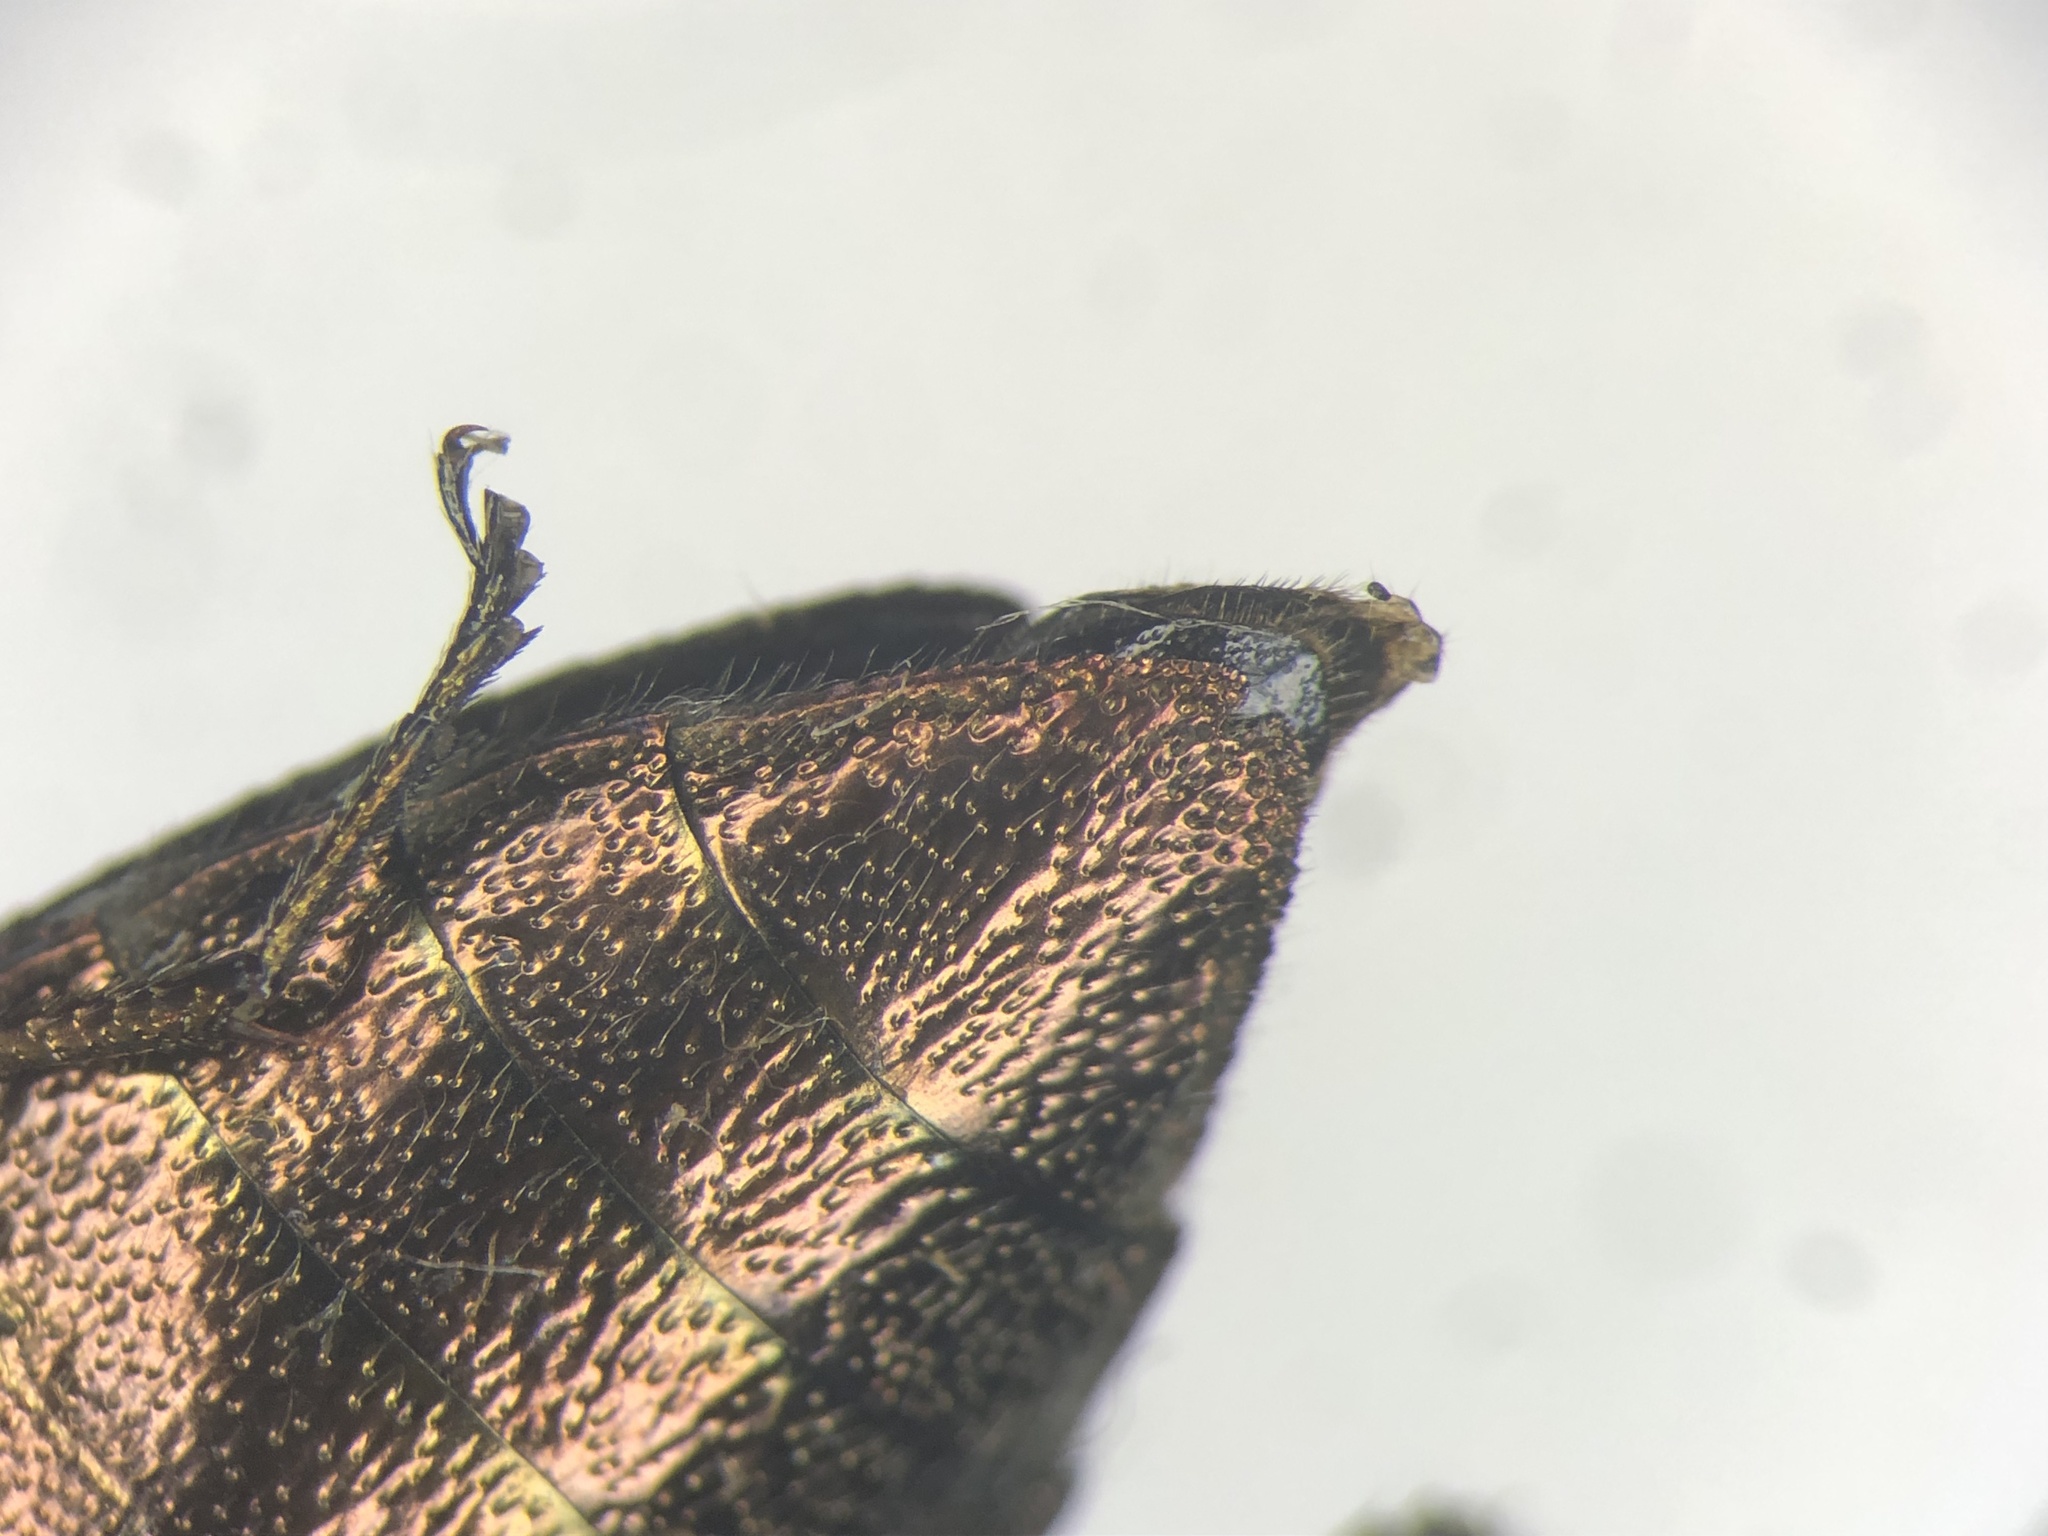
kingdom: Animalia
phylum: Arthropoda
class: Insecta
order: Coleoptera
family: Buprestidae
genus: Chrysobothris
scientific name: Chrysobothris dentipes
